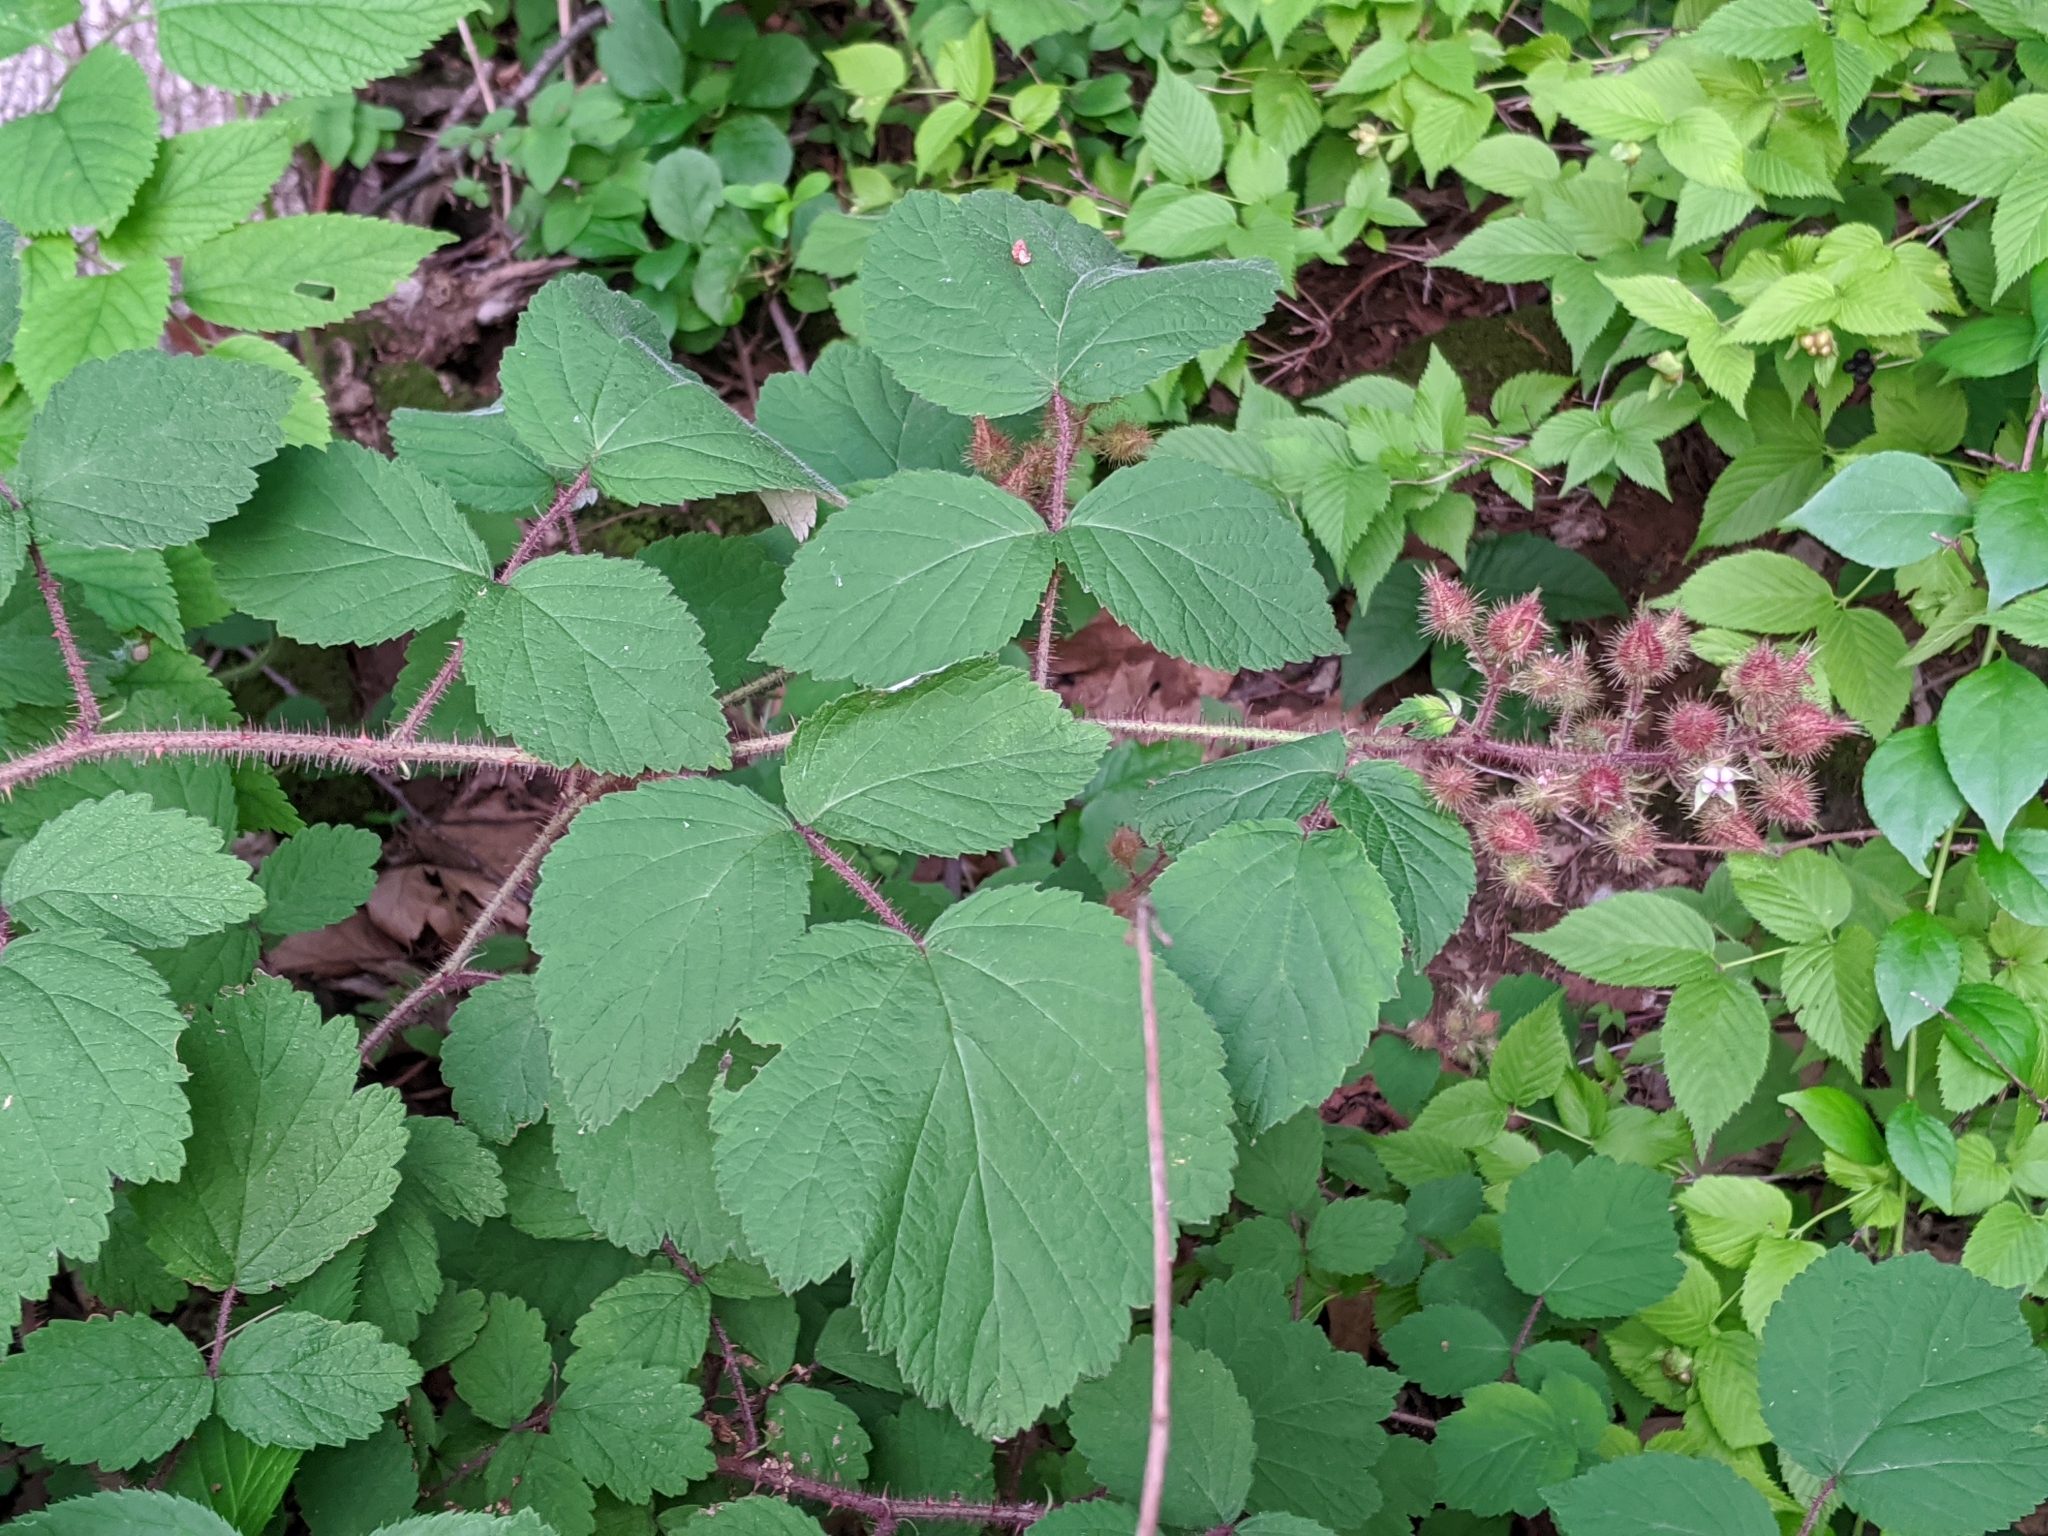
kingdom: Plantae
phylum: Tracheophyta
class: Magnoliopsida
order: Rosales
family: Rosaceae
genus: Rubus
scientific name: Rubus phoenicolasius
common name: Japanese wineberry
